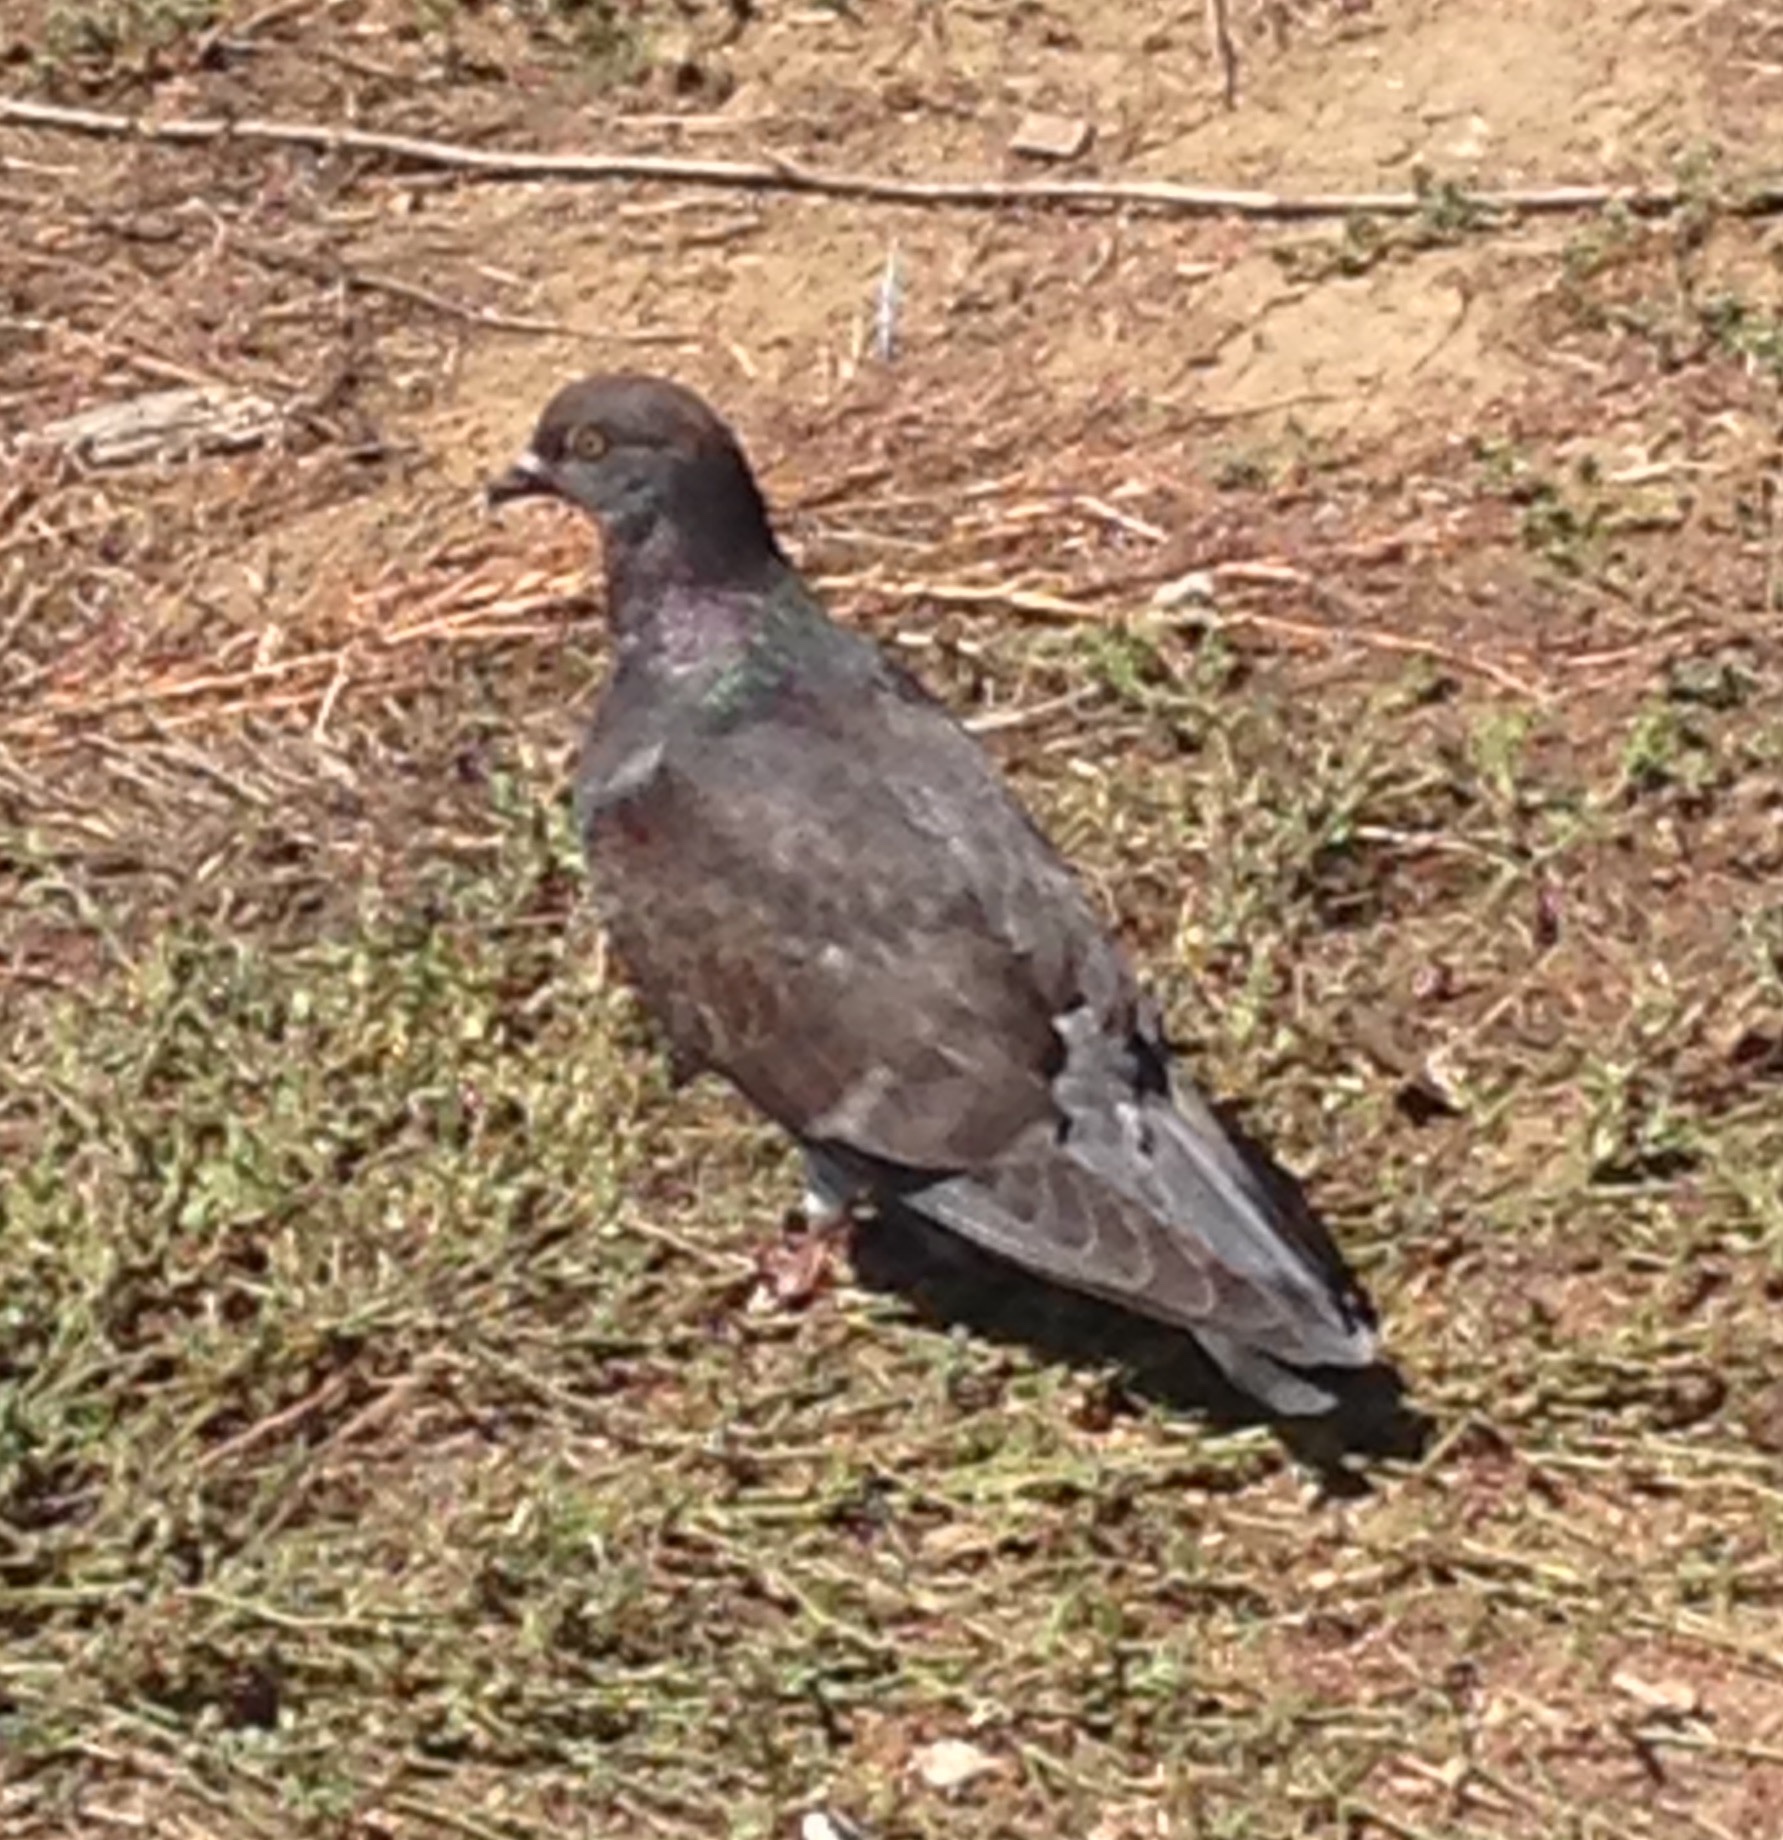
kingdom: Animalia
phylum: Chordata
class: Aves
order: Columbiformes
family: Columbidae
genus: Columba
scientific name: Columba livia
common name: Rock pigeon
